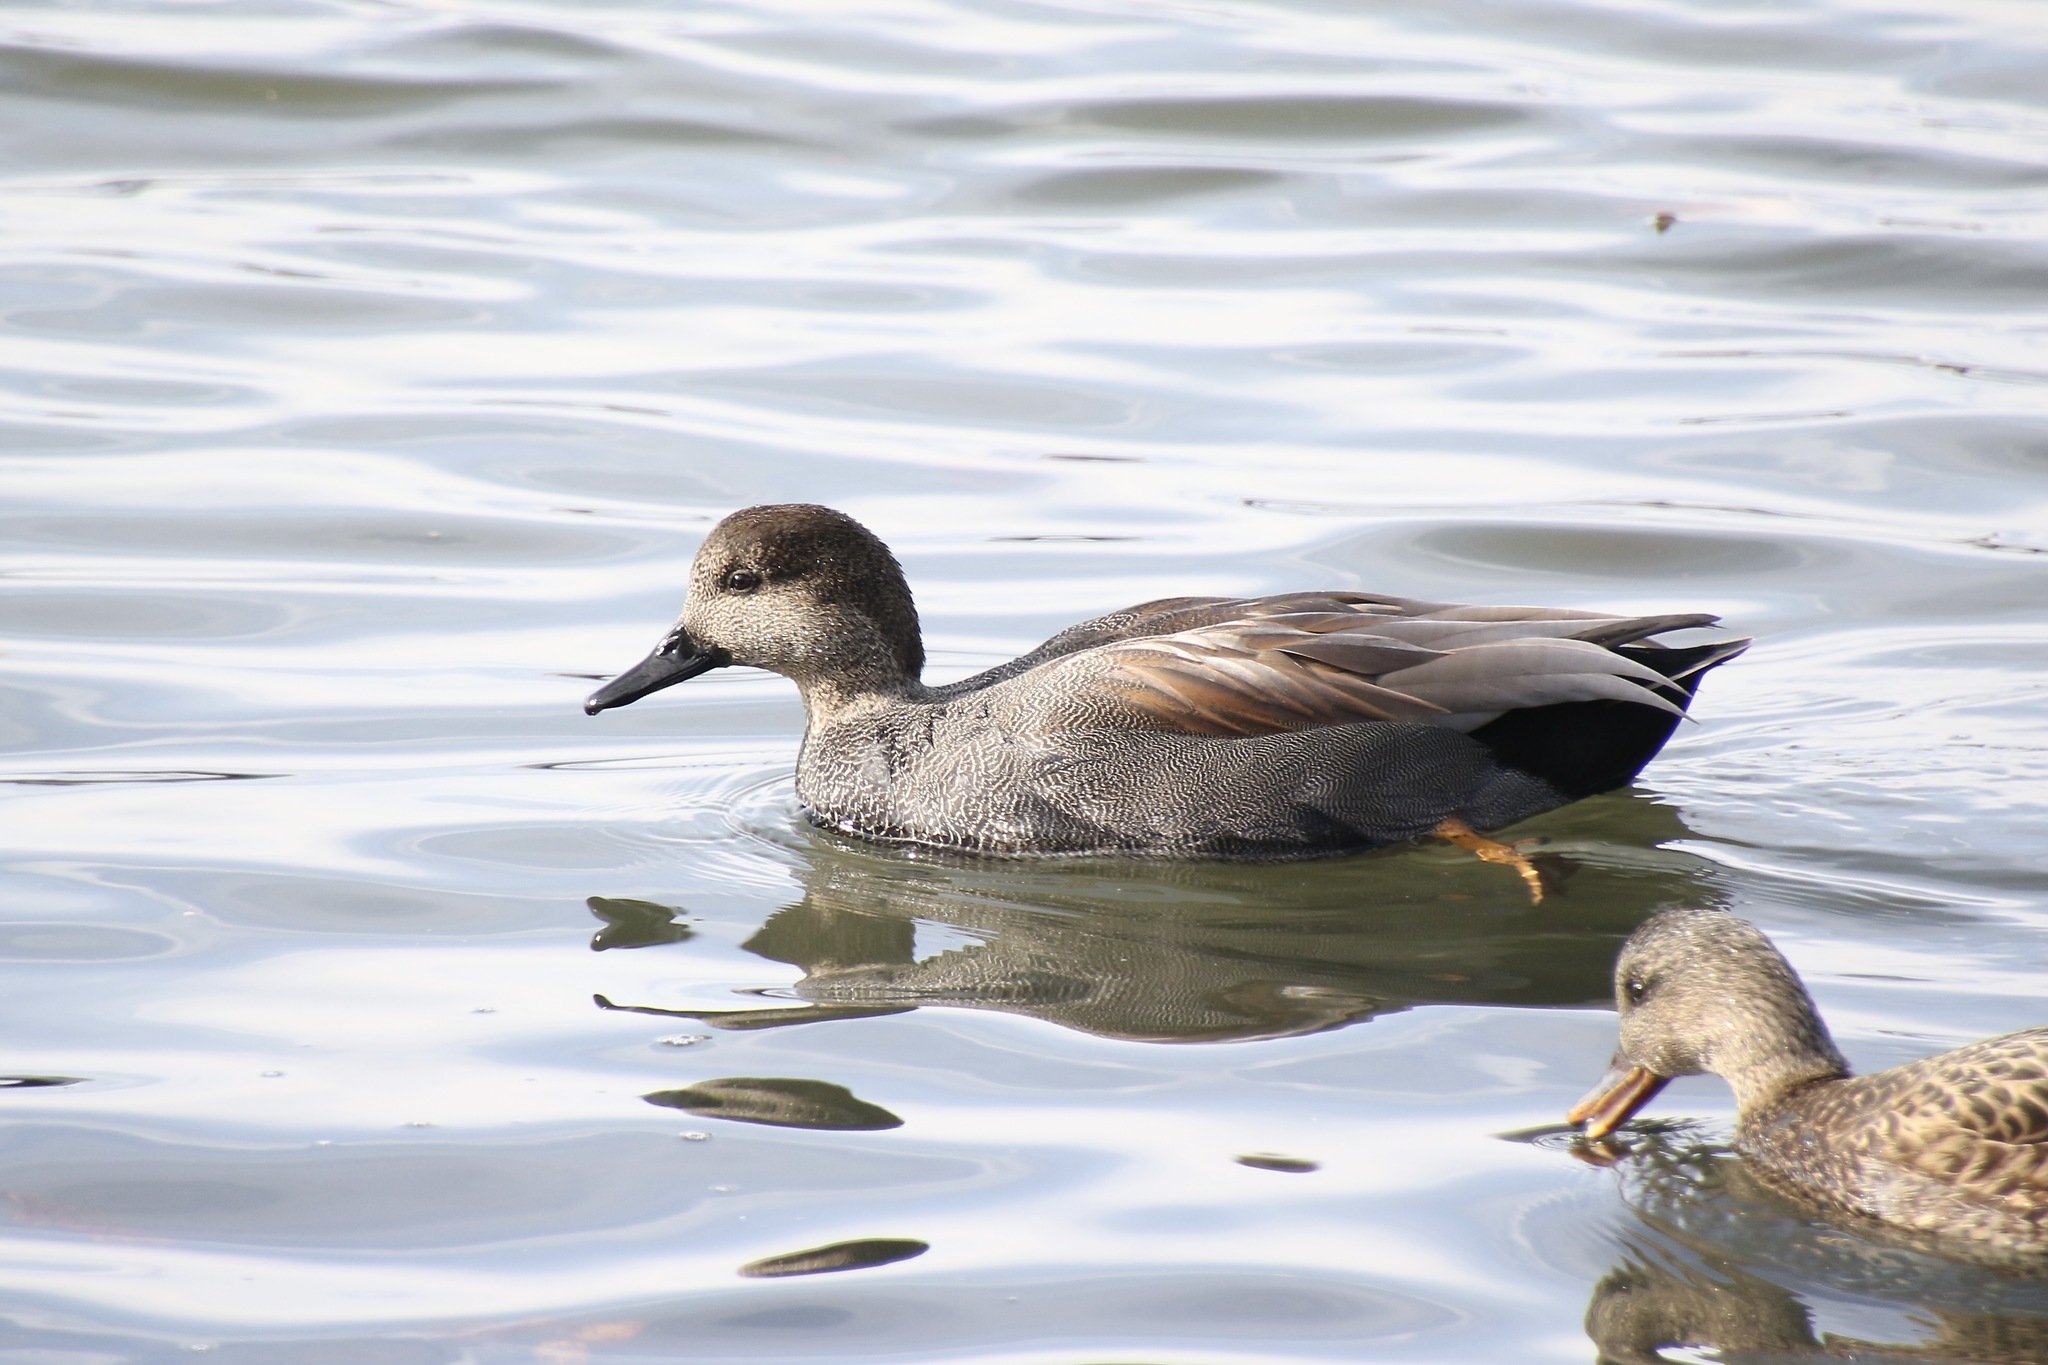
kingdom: Animalia
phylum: Chordata
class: Aves
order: Anseriformes
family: Anatidae
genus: Mareca
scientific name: Mareca strepera
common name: Gadwall
